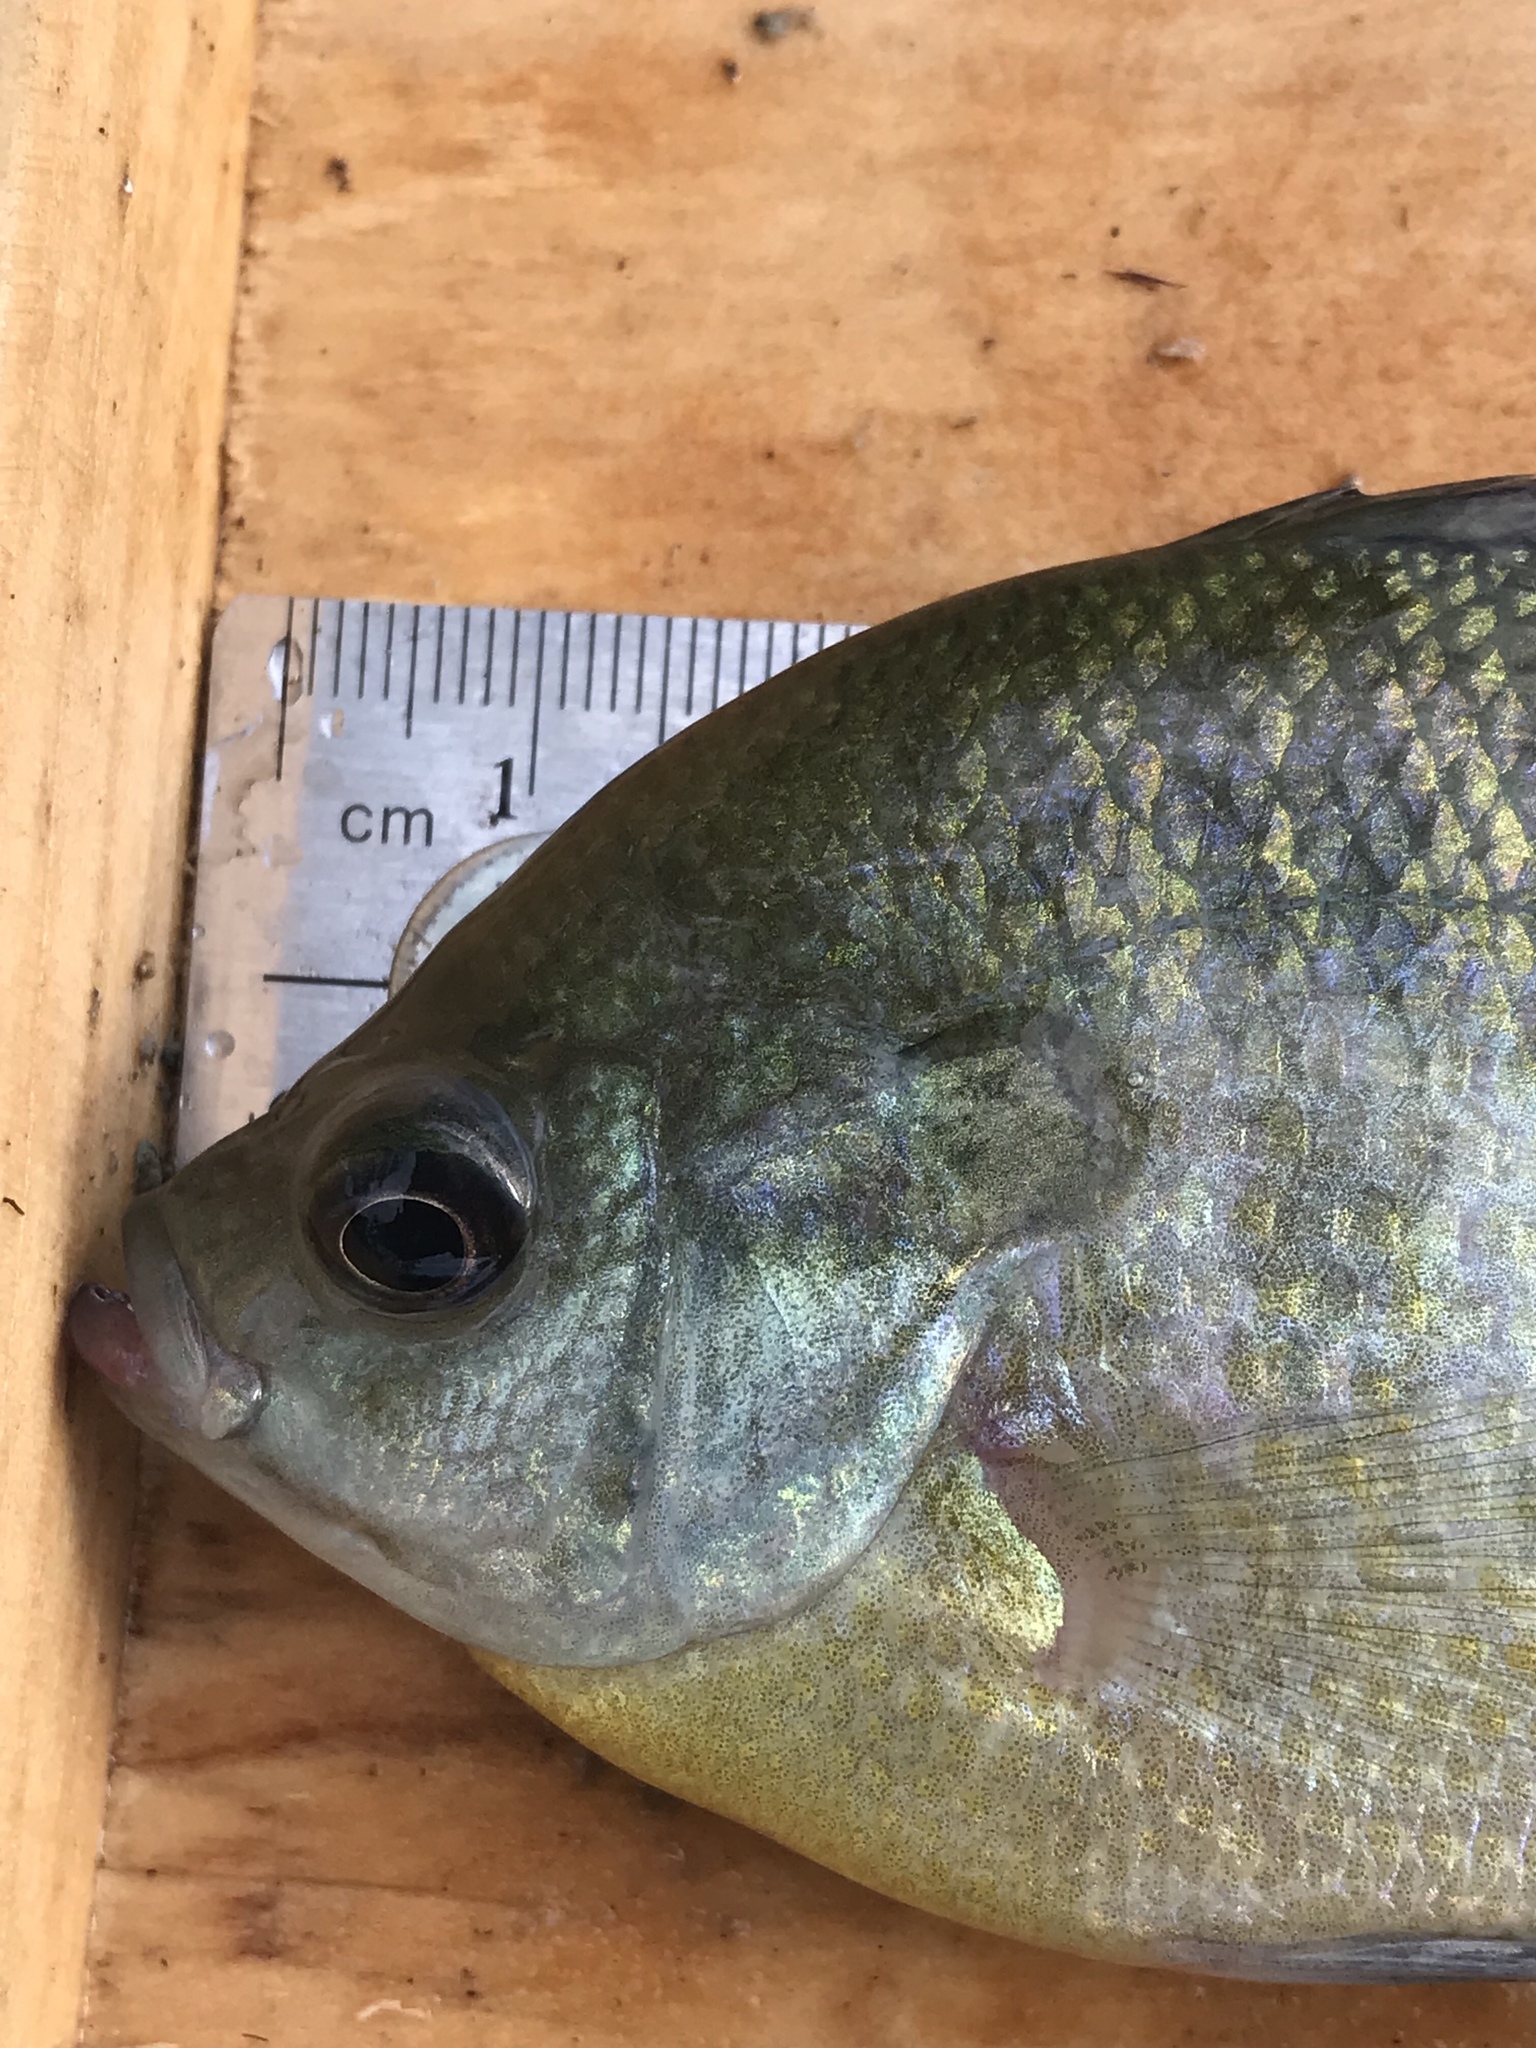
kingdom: Animalia
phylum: Chordata
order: Perciformes
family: Centrarchidae
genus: Lepomis
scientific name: Lepomis macrochirus
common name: Bluegill
